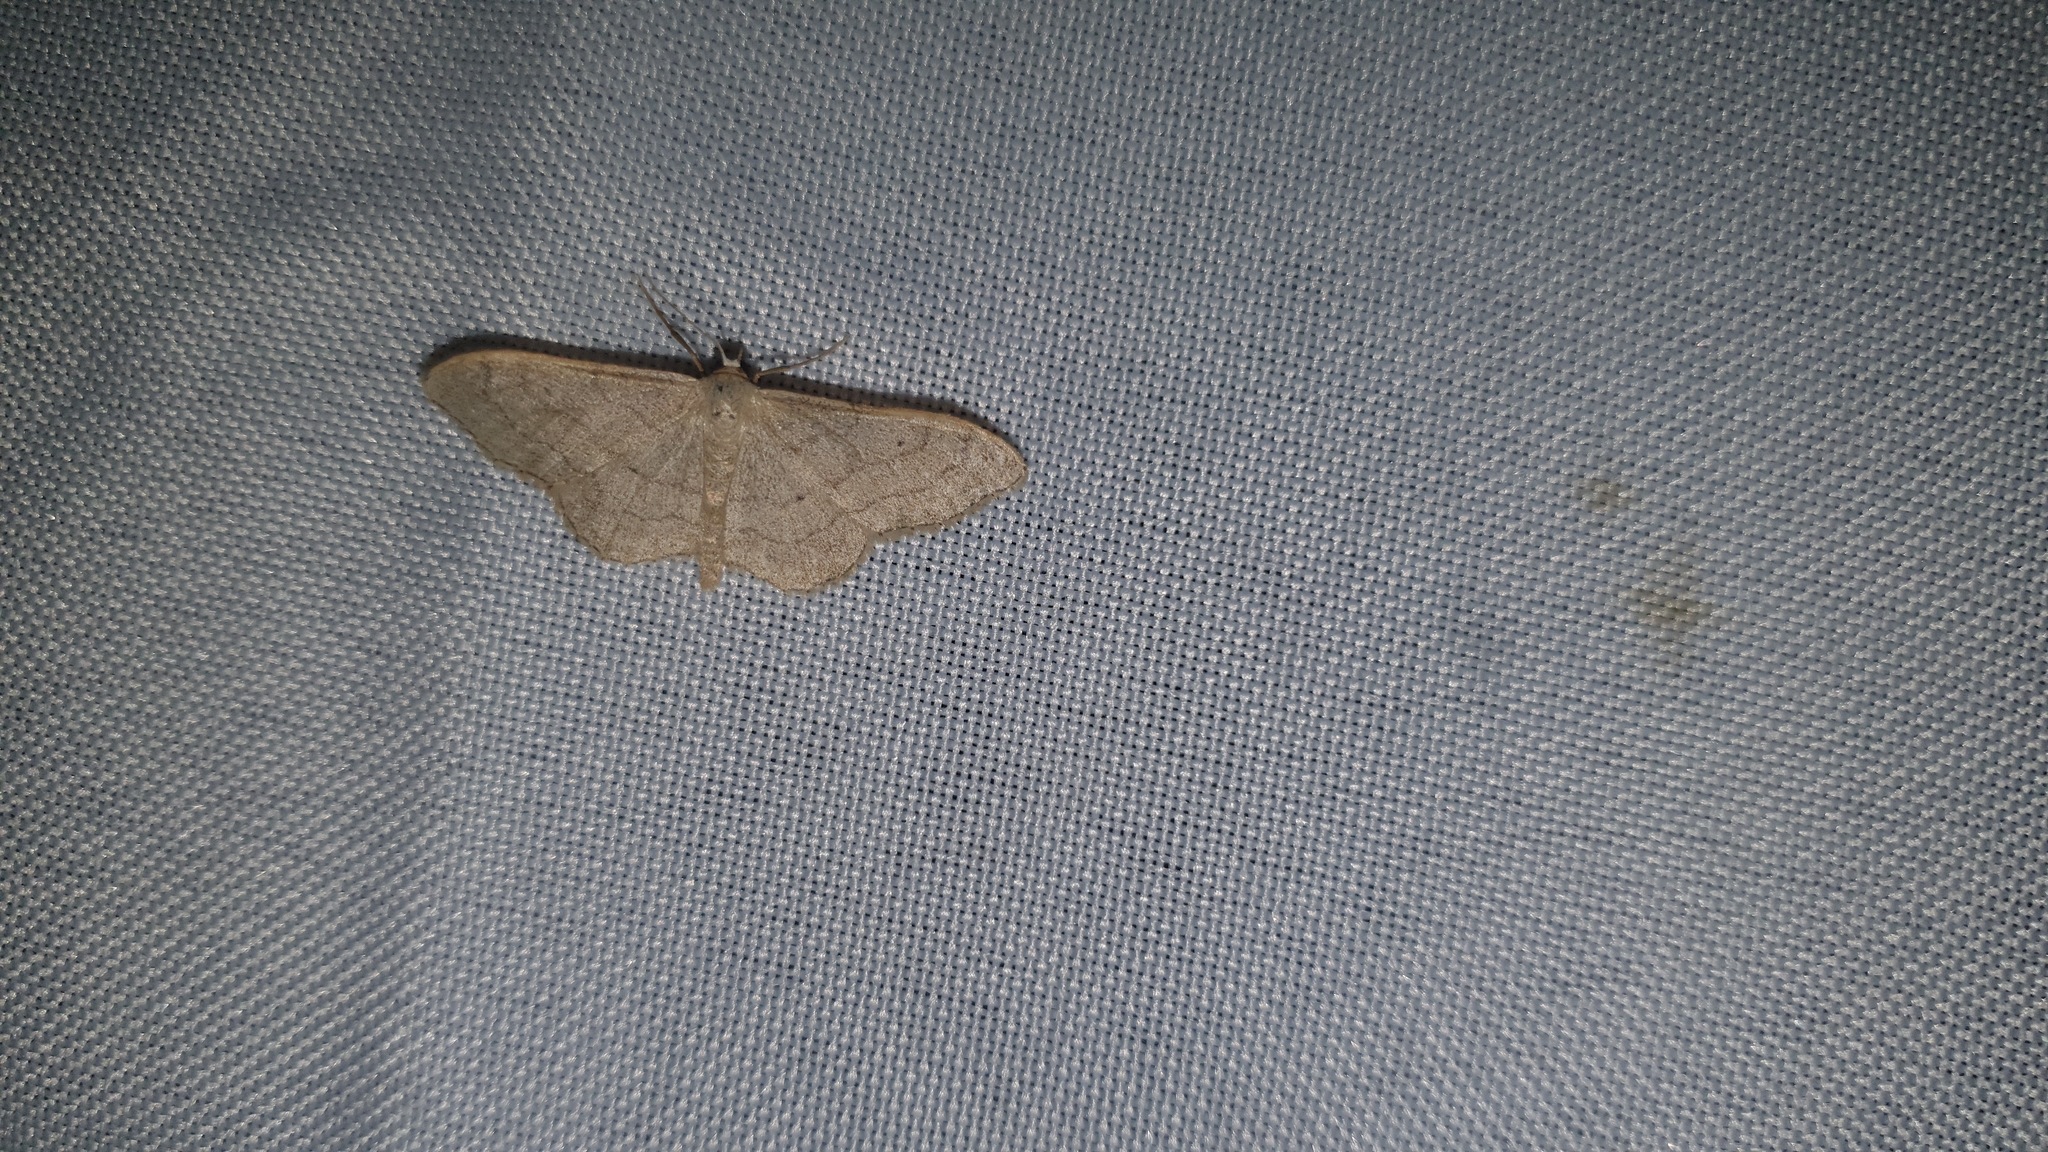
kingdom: Animalia
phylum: Arthropoda
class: Insecta
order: Lepidoptera
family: Geometridae
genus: Idaea
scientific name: Idaea aversata
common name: Riband wave
